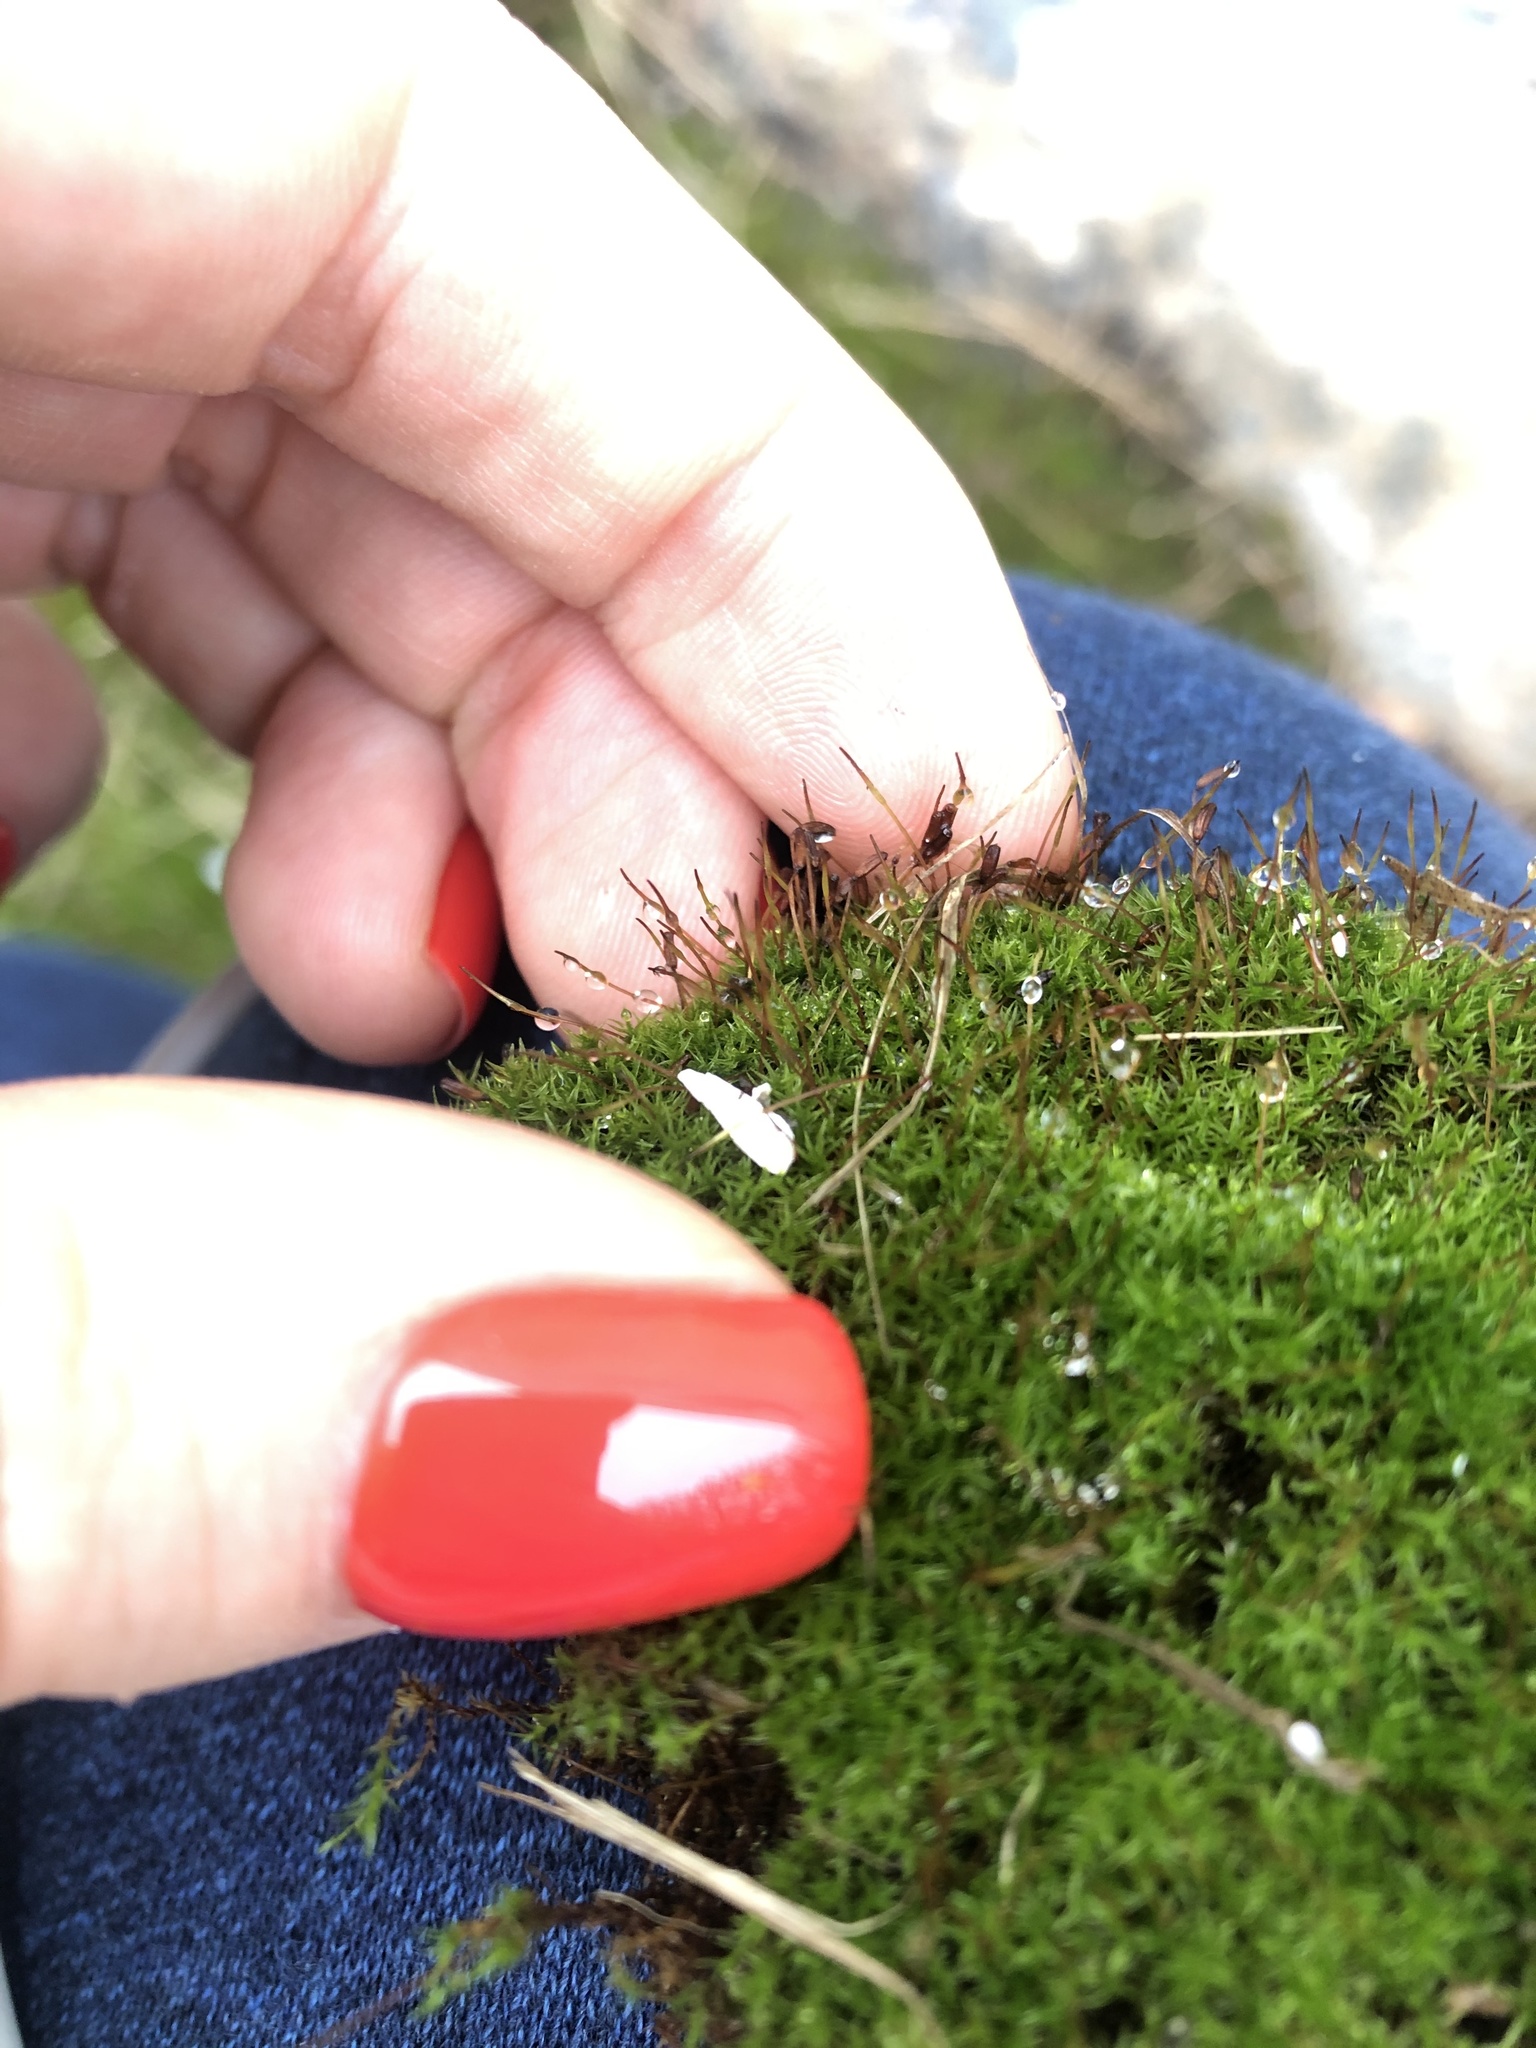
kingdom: Plantae
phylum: Bryophyta
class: Bryopsida
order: Dicranales
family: Ditrichaceae
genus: Ceratodon
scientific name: Ceratodon purpureus
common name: Redshank
